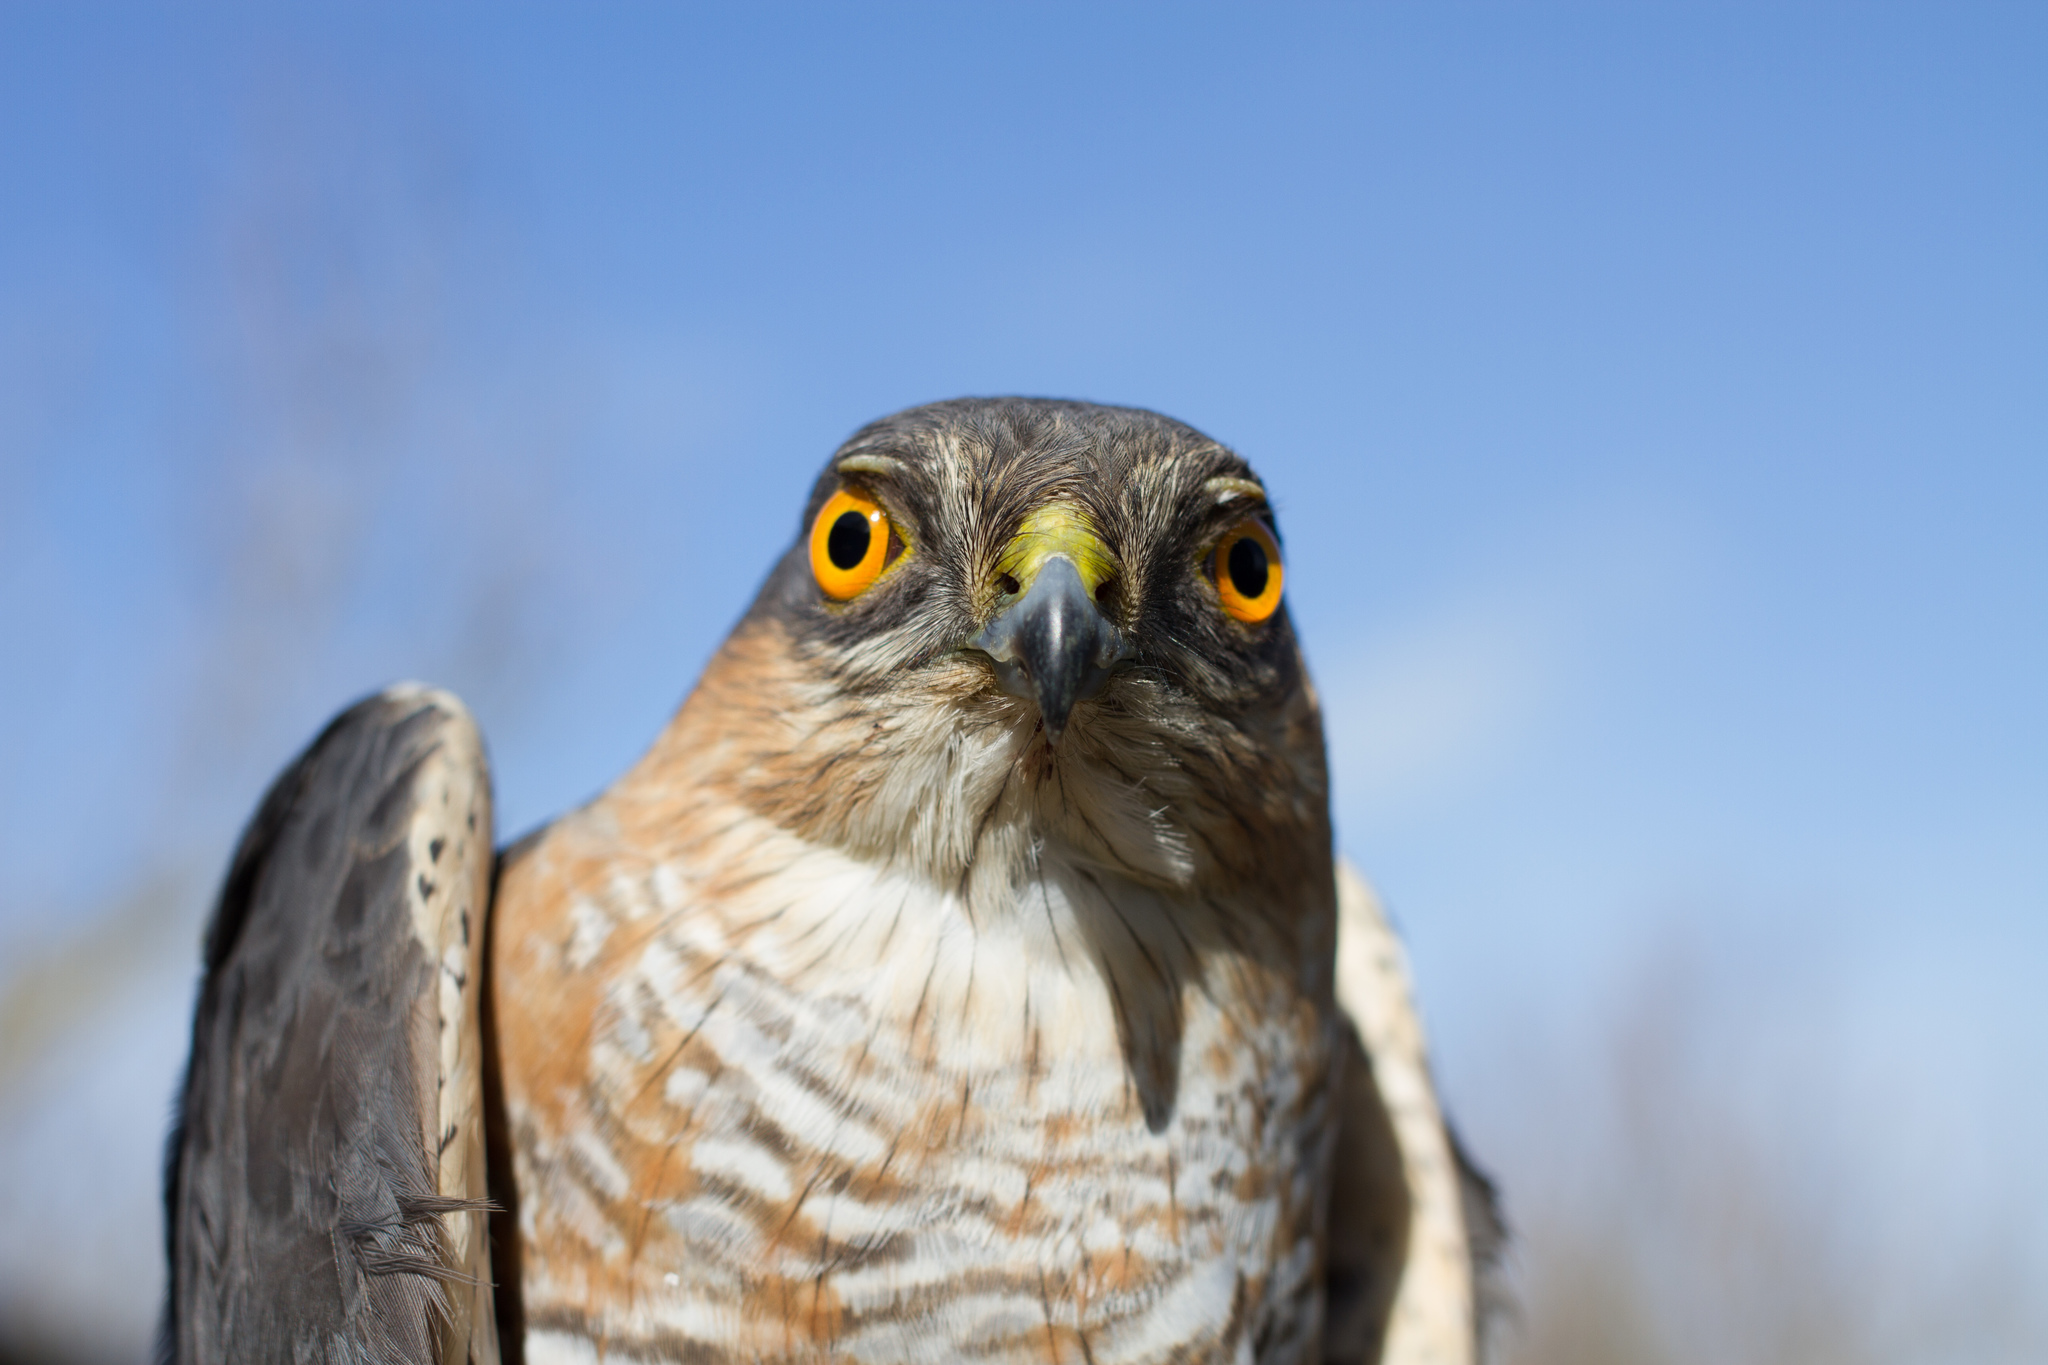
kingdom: Animalia
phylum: Chordata
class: Aves
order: Accipitriformes
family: Accipitridae
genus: Accipiter
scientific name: Accipiter nisus
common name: Eurasian sparrowhawk
